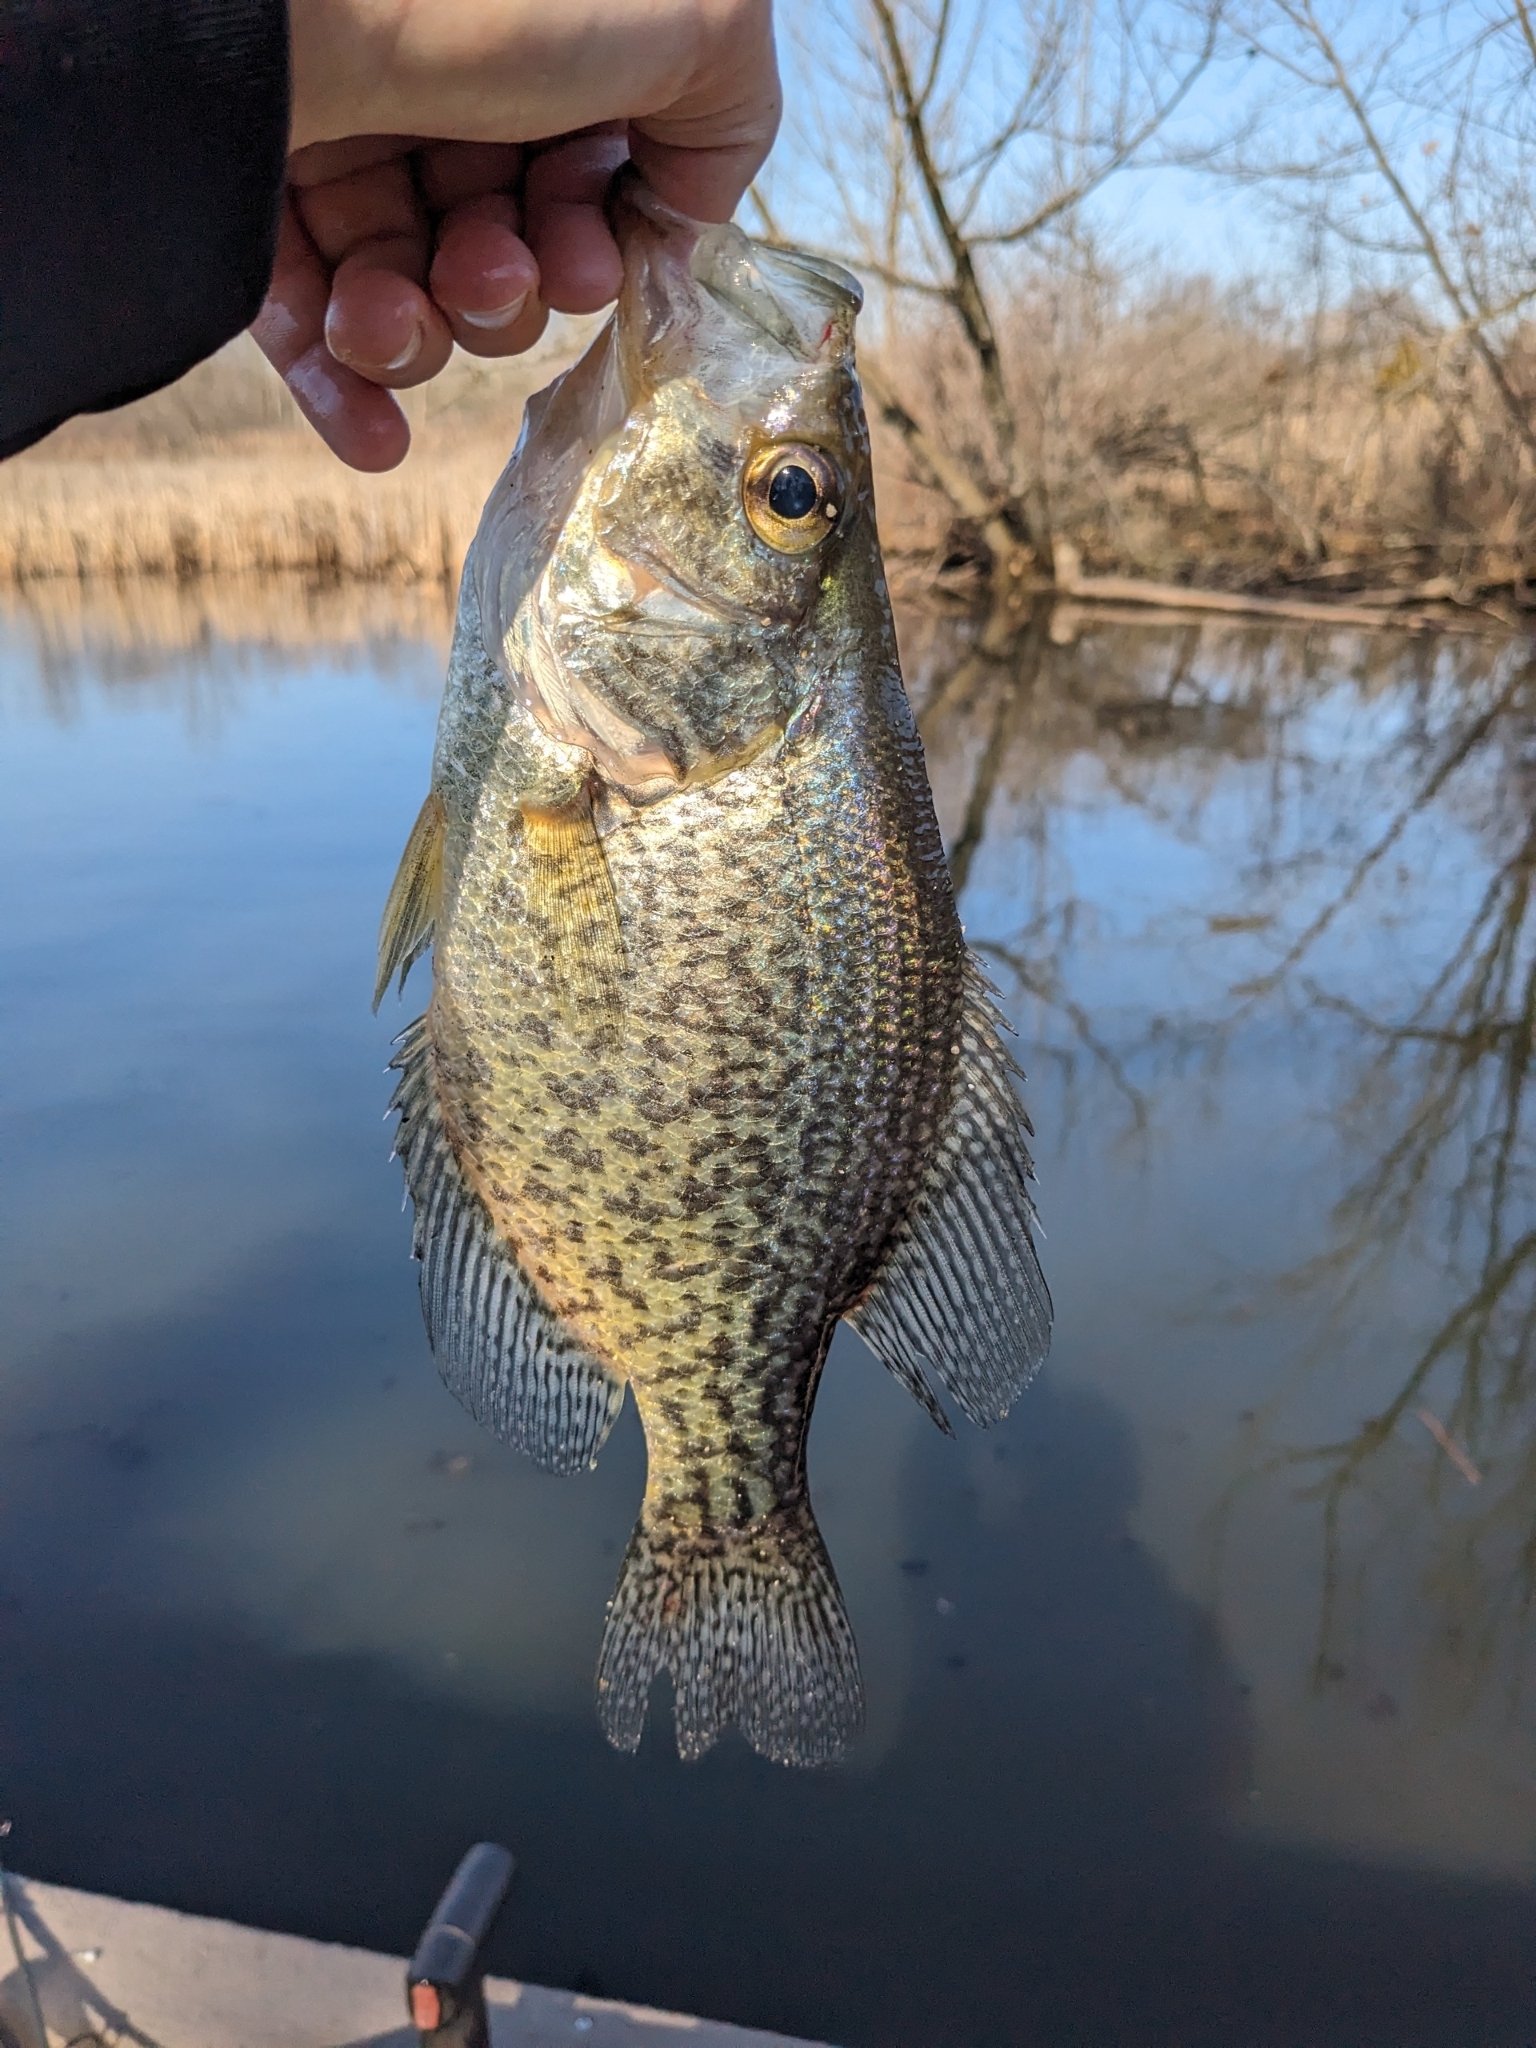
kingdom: Animalia
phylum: Chordata
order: Perciformes
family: Centrarchidae
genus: Pomoxis
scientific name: Pomoxis nigromaculatus
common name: Black crappie
